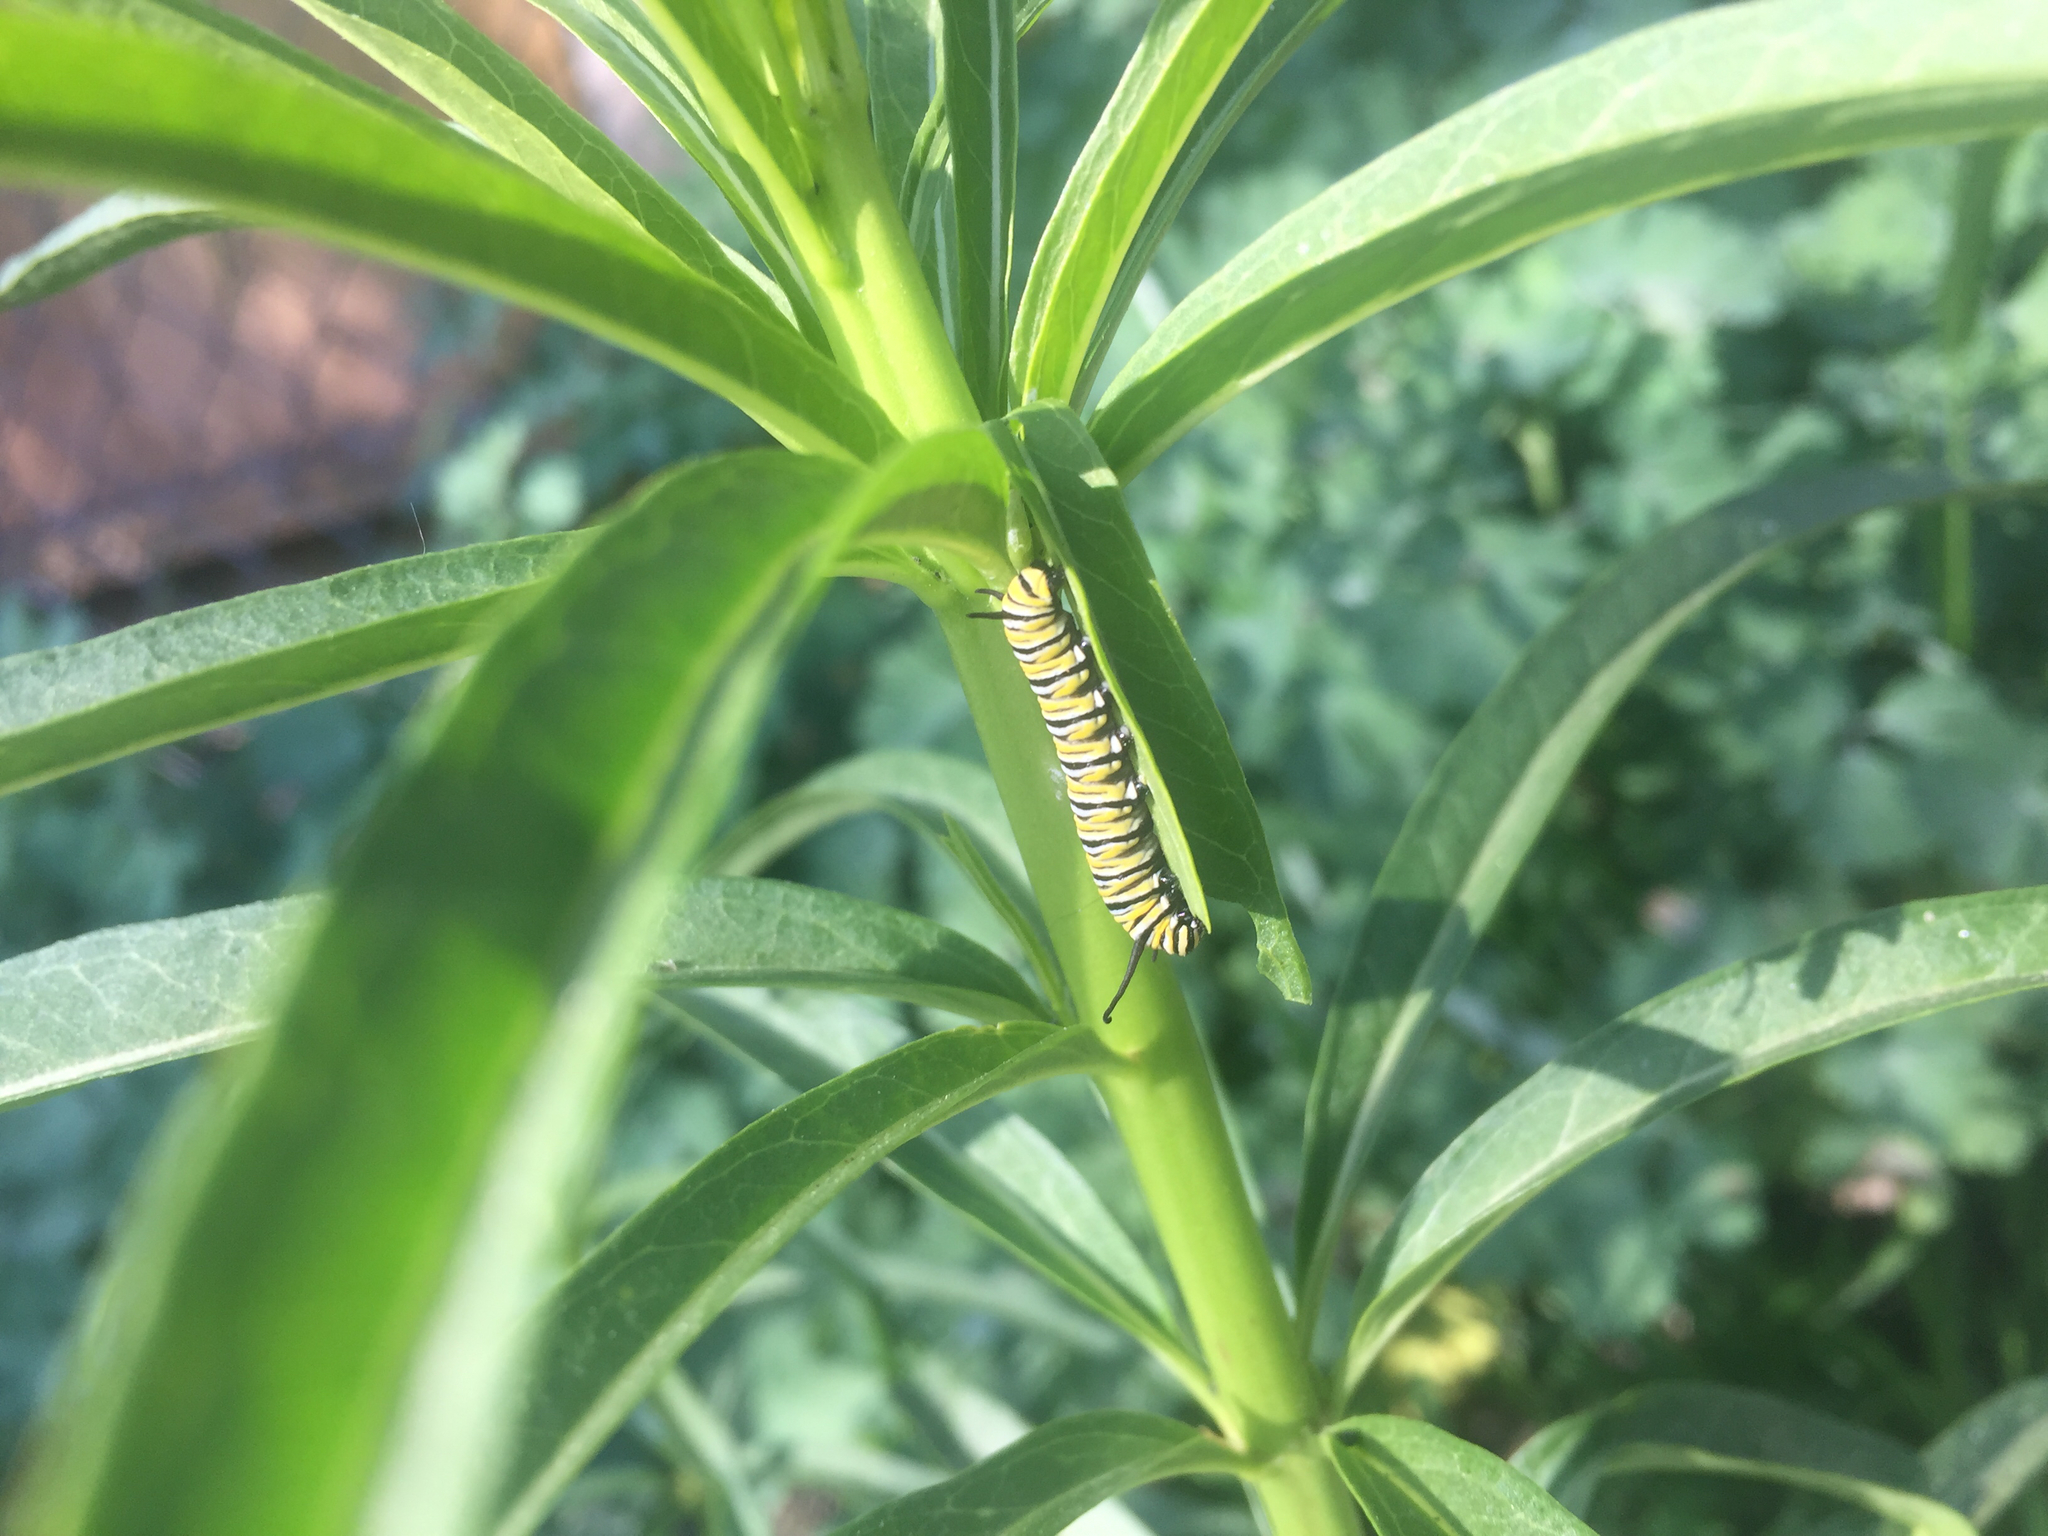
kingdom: Animalia
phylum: Arthropoda
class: Insecta
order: Lepidoptera
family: Nymphalidae
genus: Danaus
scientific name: Danaus plexippus
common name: Monarch
